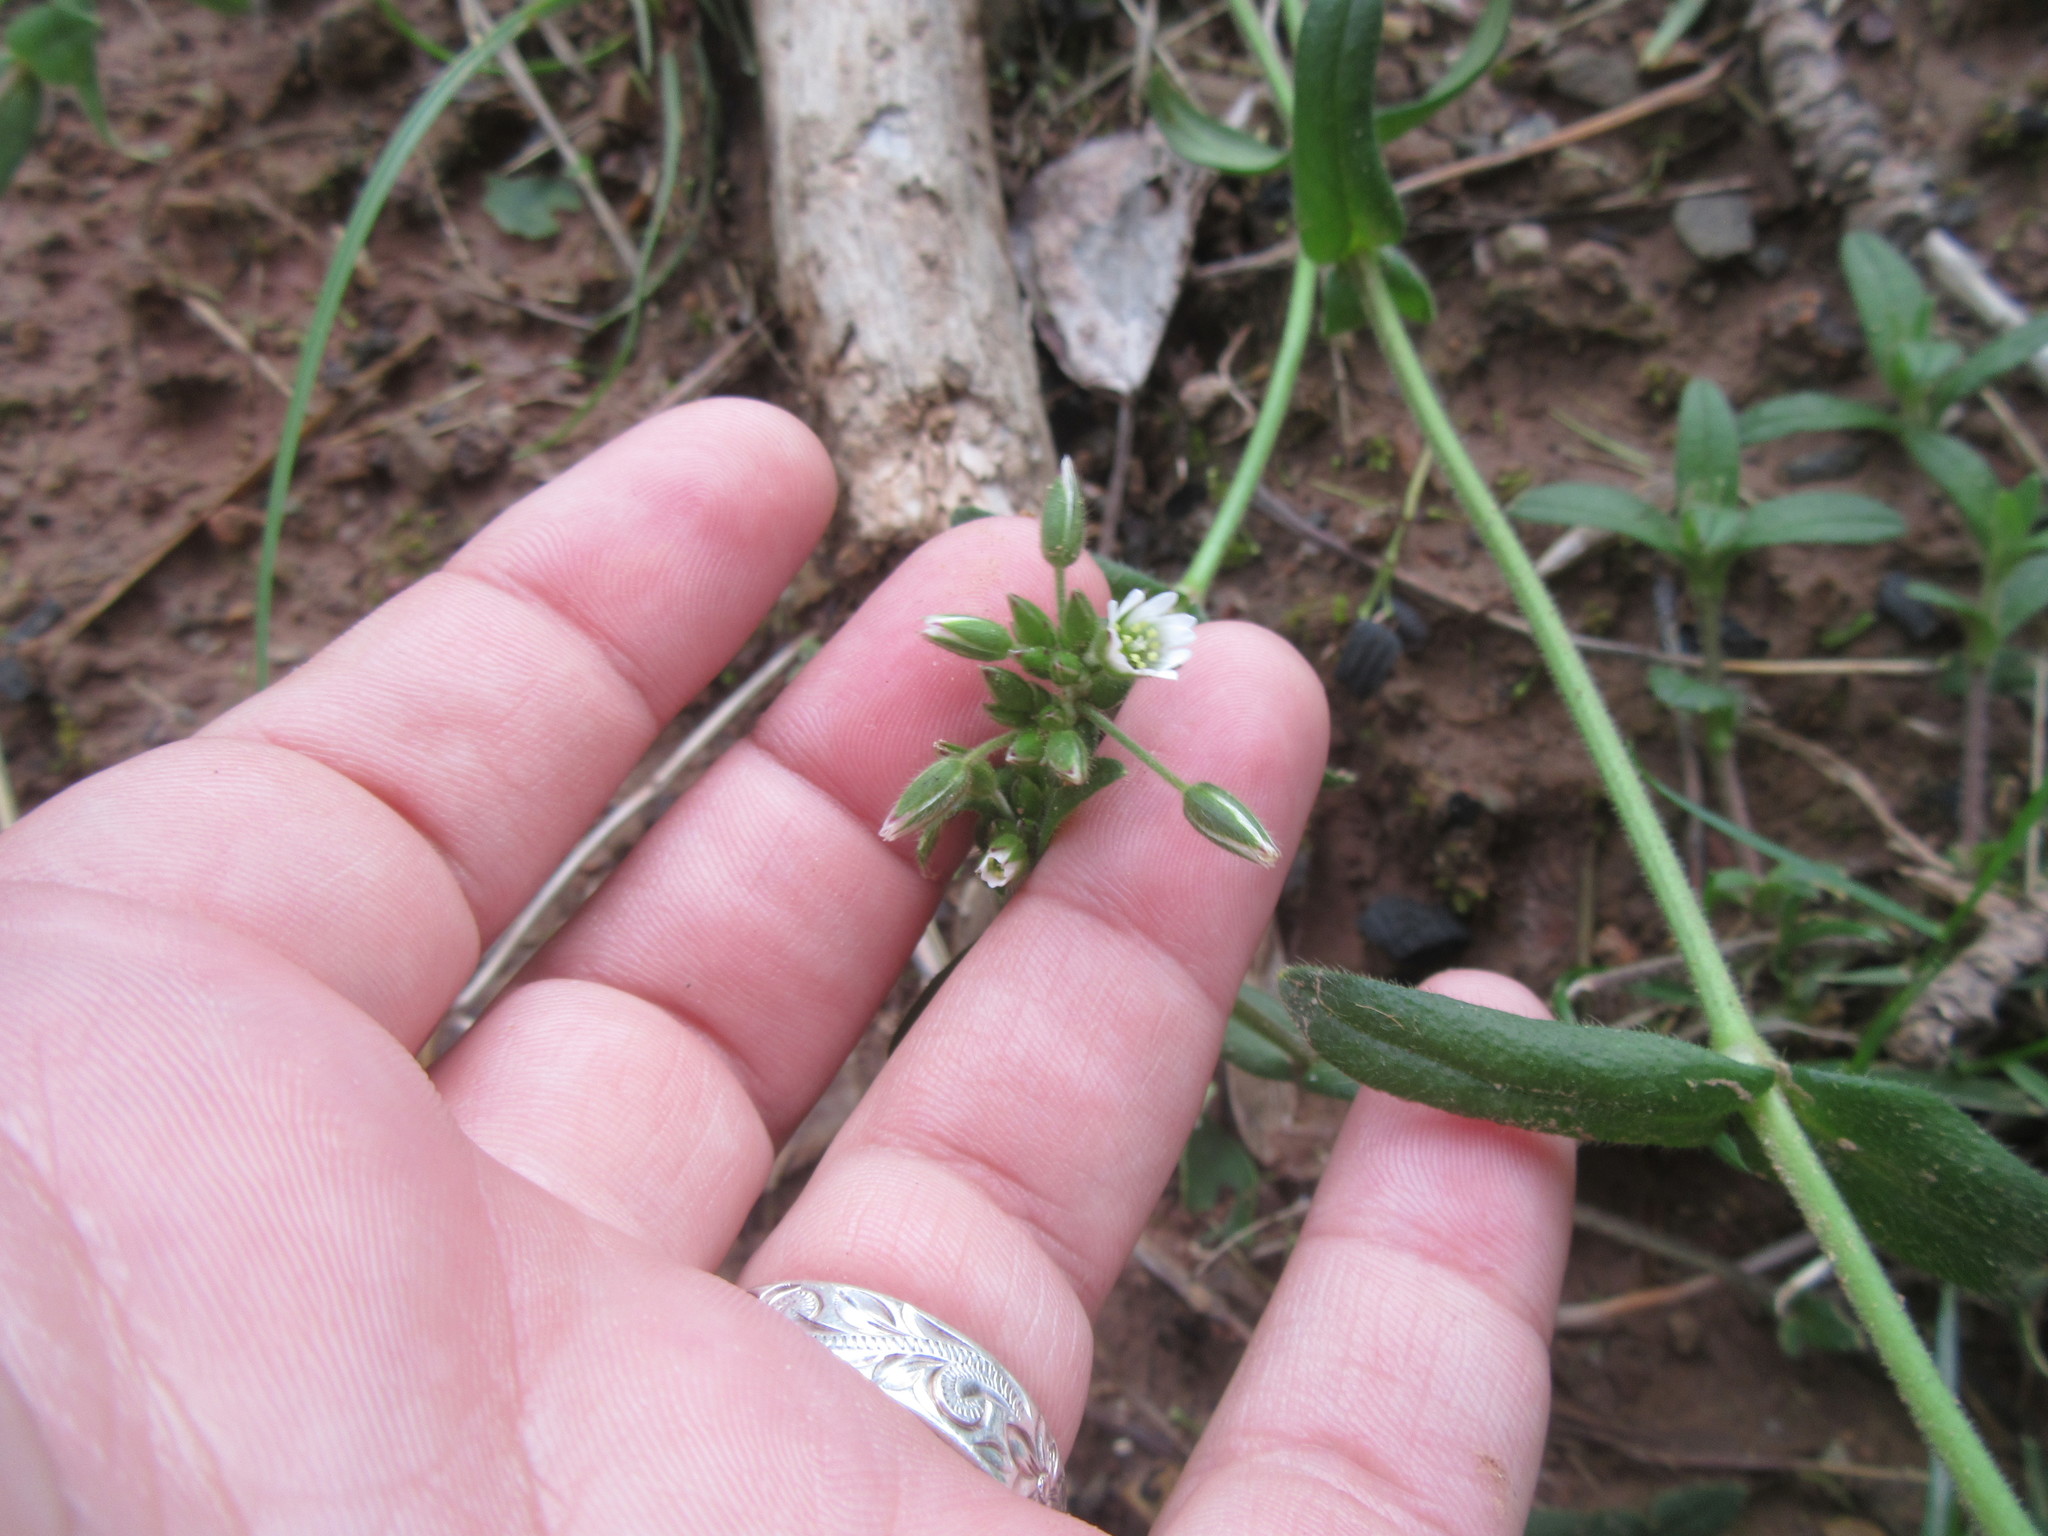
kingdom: Plantae
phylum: Tracheophyta
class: Magnoliopsida
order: Caryophyllales
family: Caryophyllaceae
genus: Cerastium
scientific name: Cerastium fontanum
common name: Common mouse-ear
